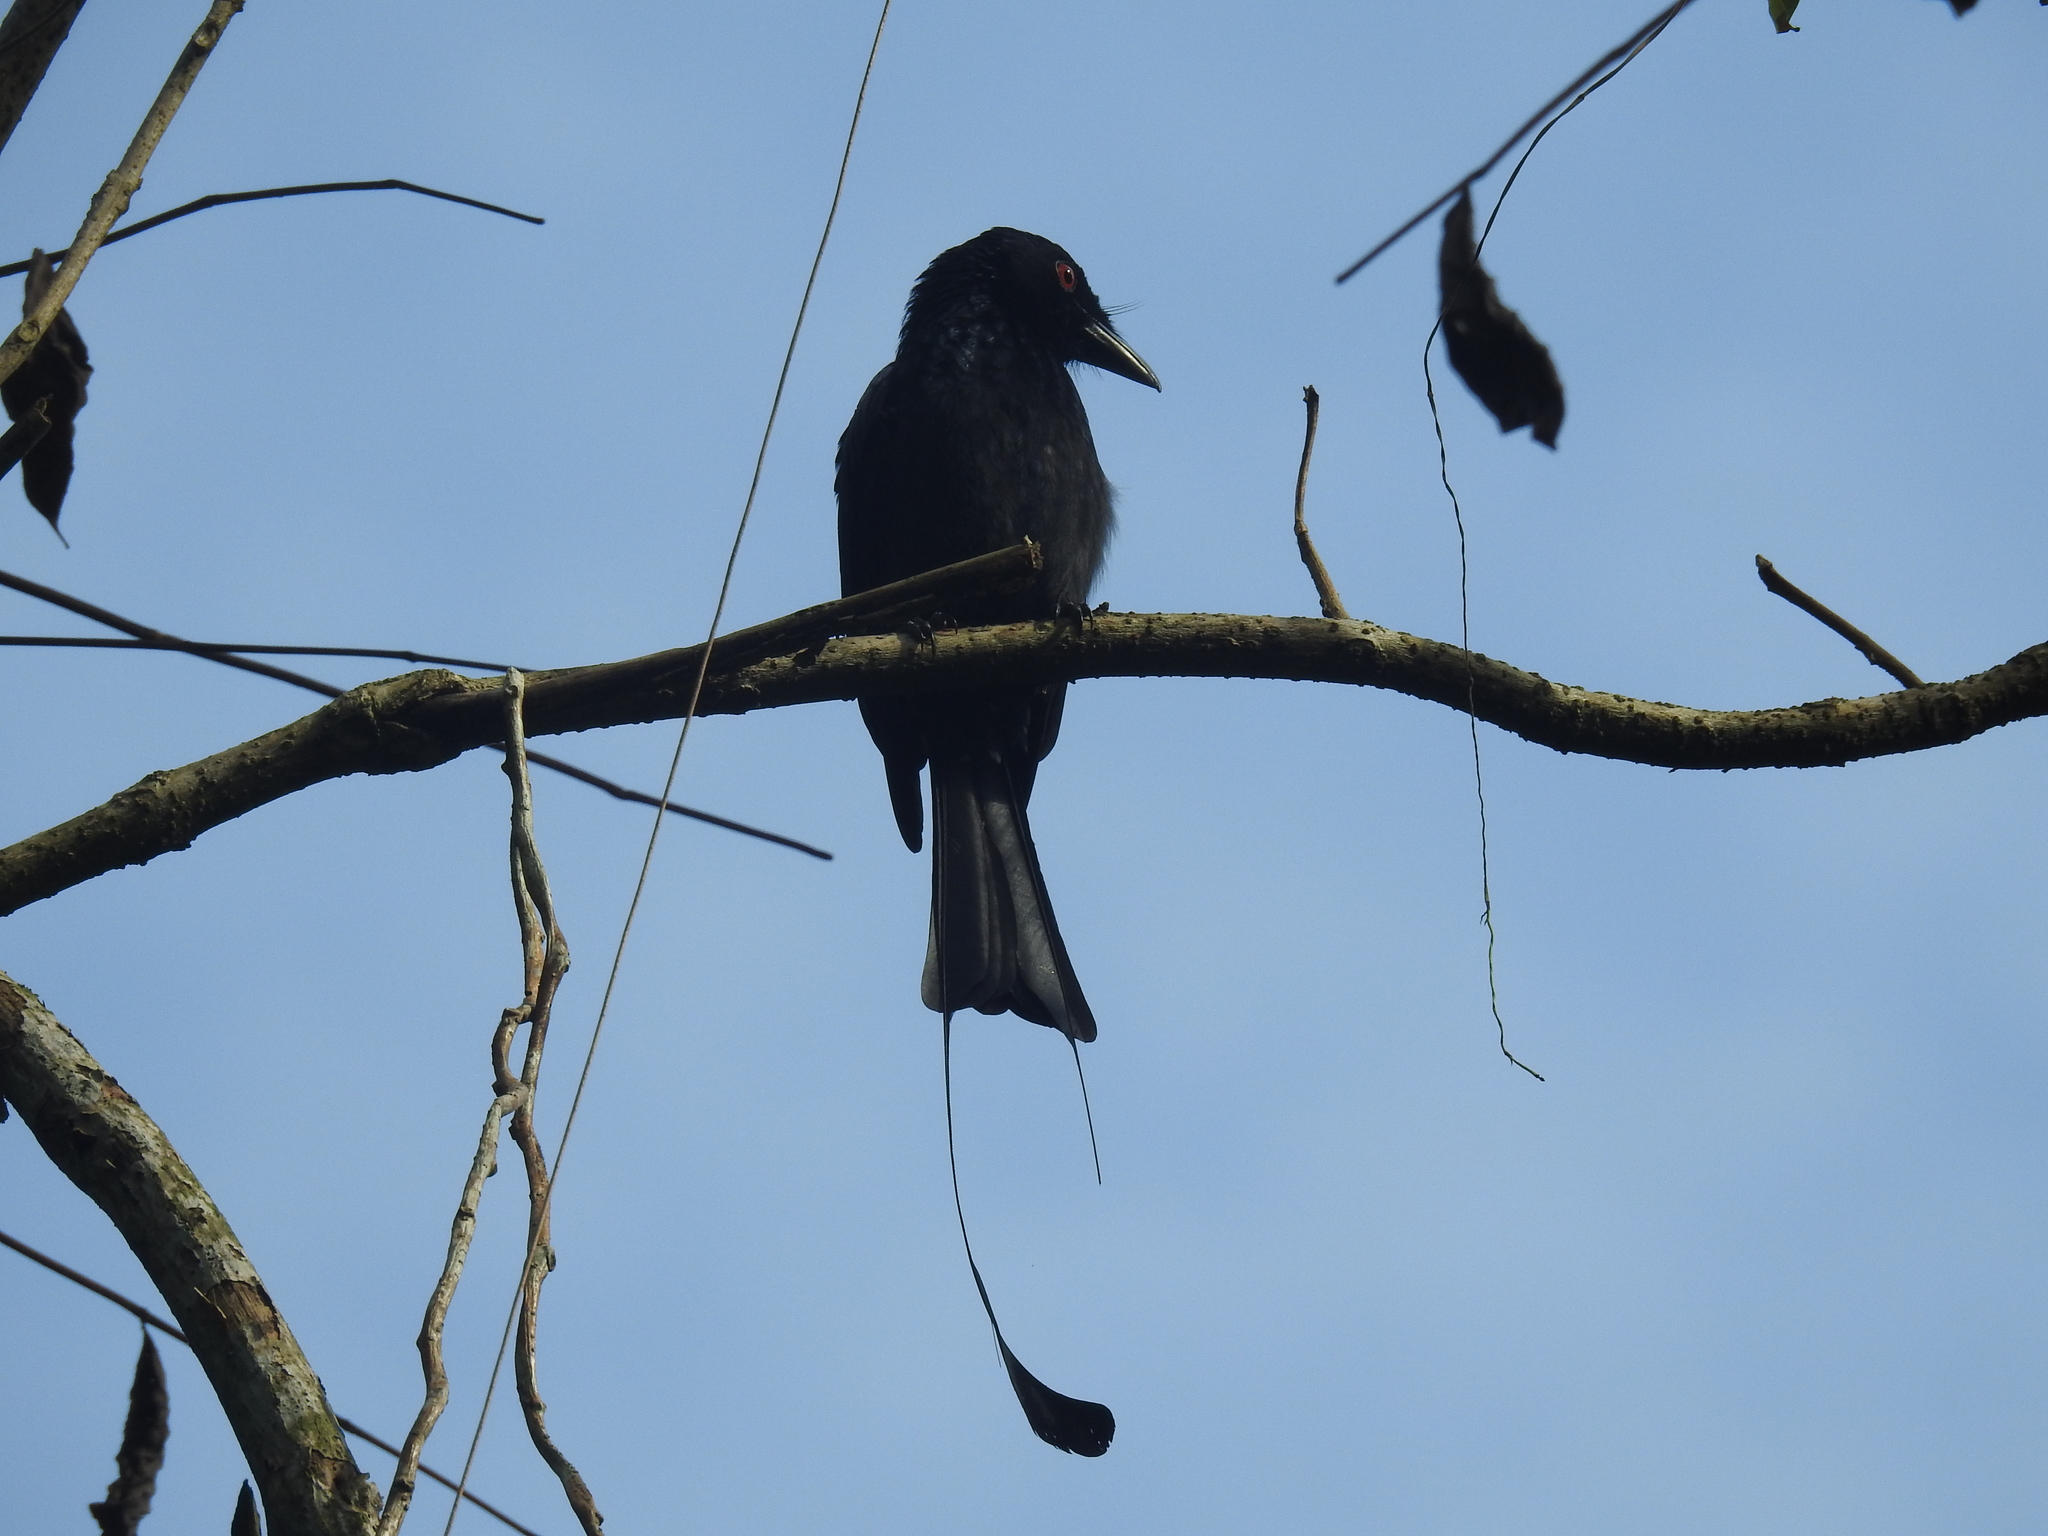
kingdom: Animalia
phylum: Chordata
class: Aves
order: Passeriformes
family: Dicruridae
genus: Dicrurus
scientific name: Dicrurus paradiseus
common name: Greater racket-tailed drongo
